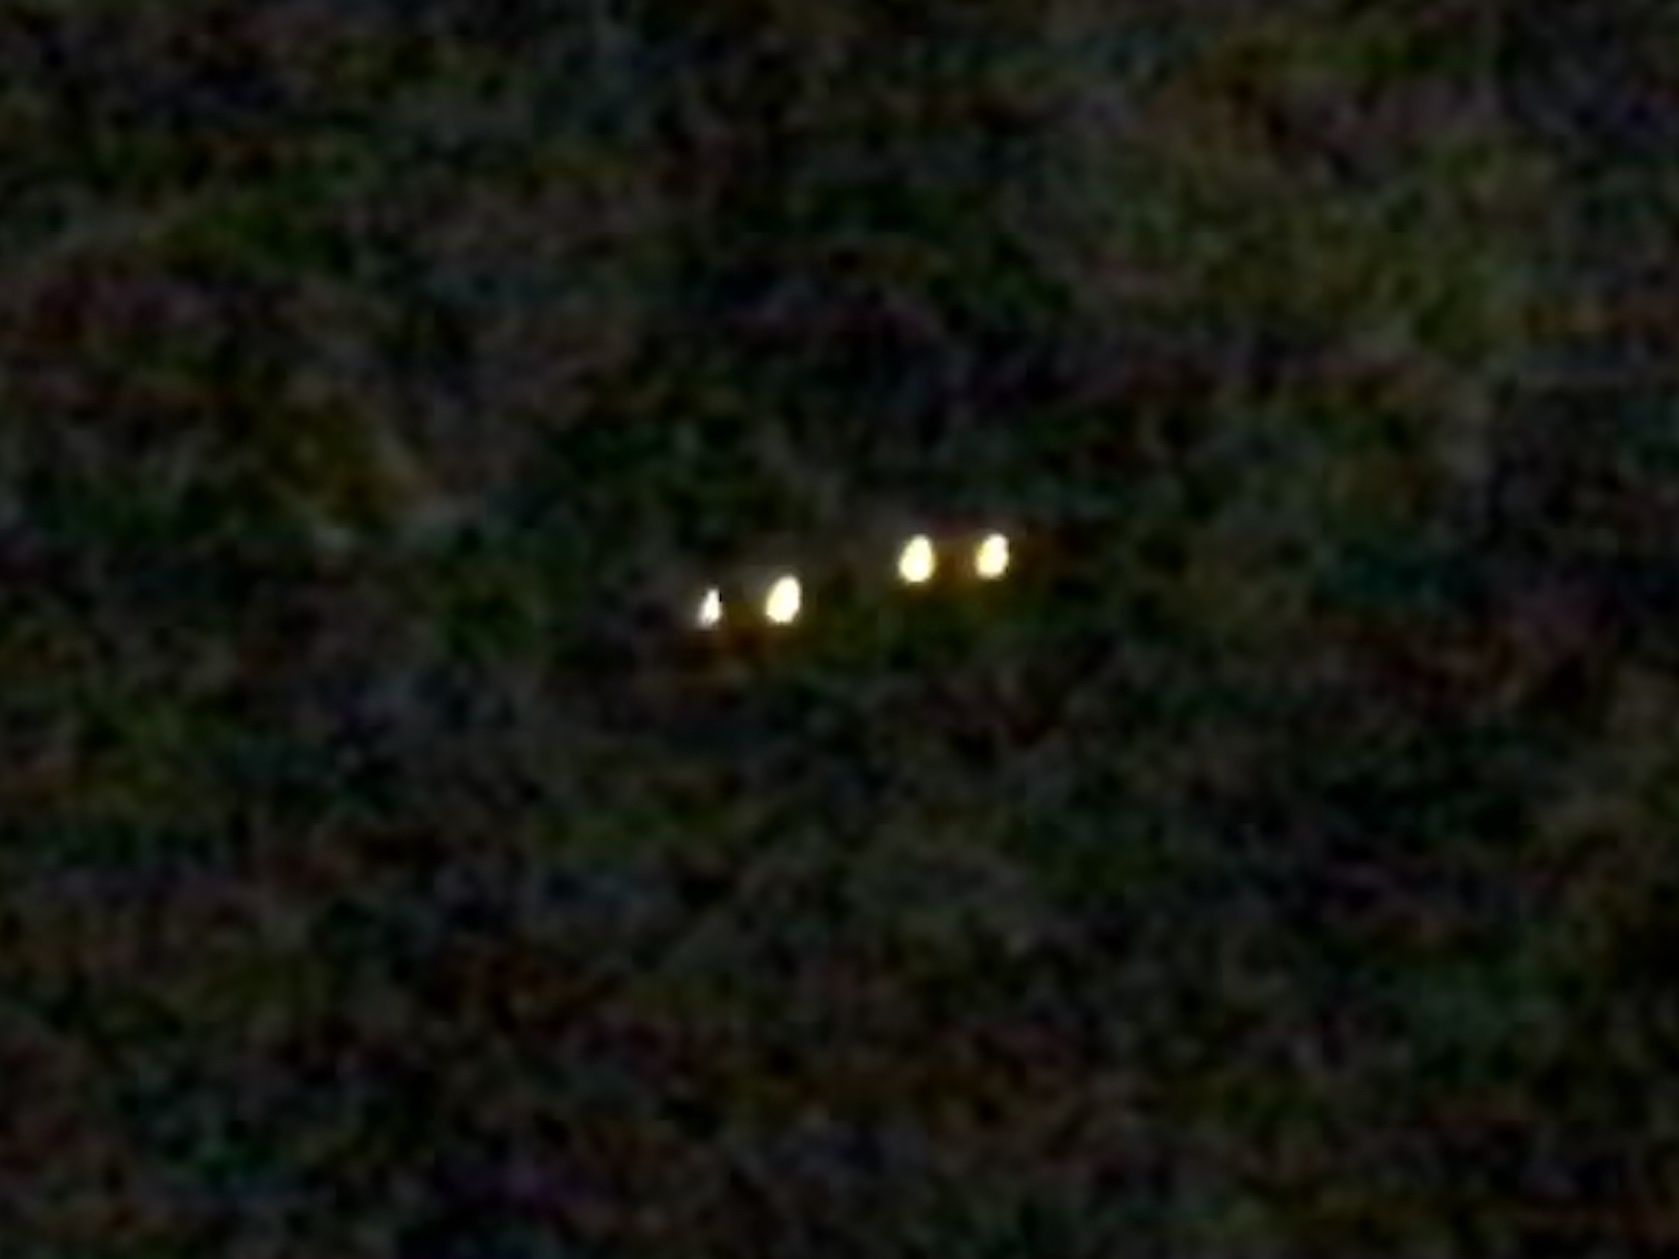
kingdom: Animalia
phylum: Chordata
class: Mammalia
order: Carnivora
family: Procyonidae
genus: Procyon
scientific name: Procyon lotor
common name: Raccoon
